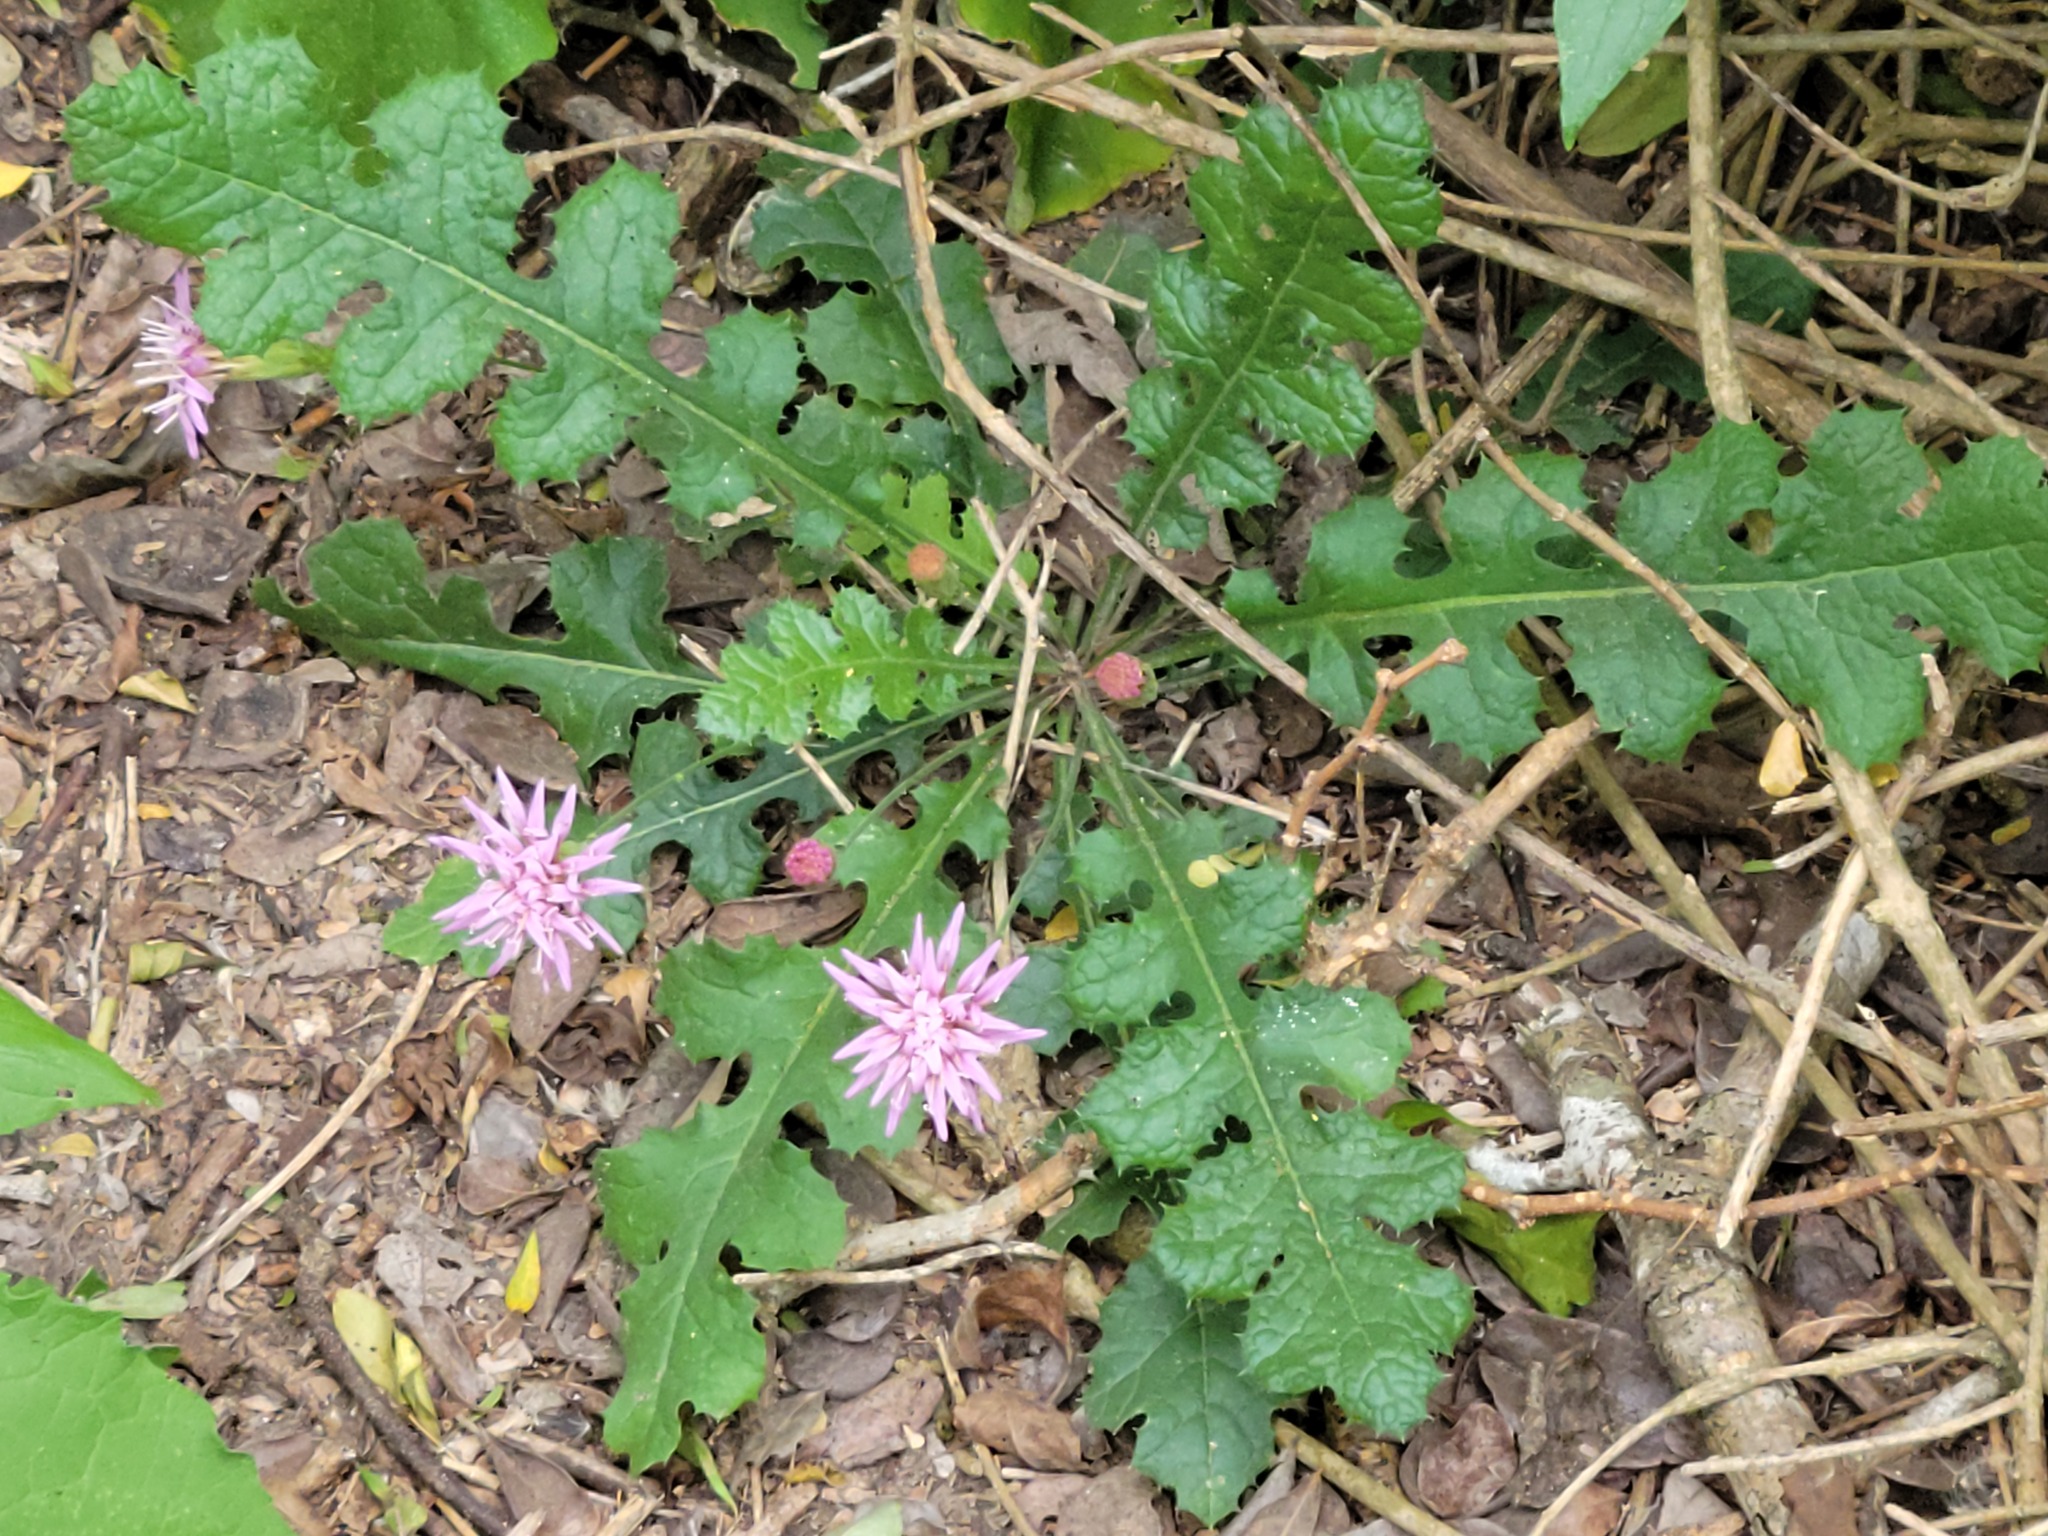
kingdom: Plantae
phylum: Tracheophyta
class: Magnoliopsida
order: Asterales
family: Asteraceae
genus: Acourtia
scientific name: Acourtia runcinata
